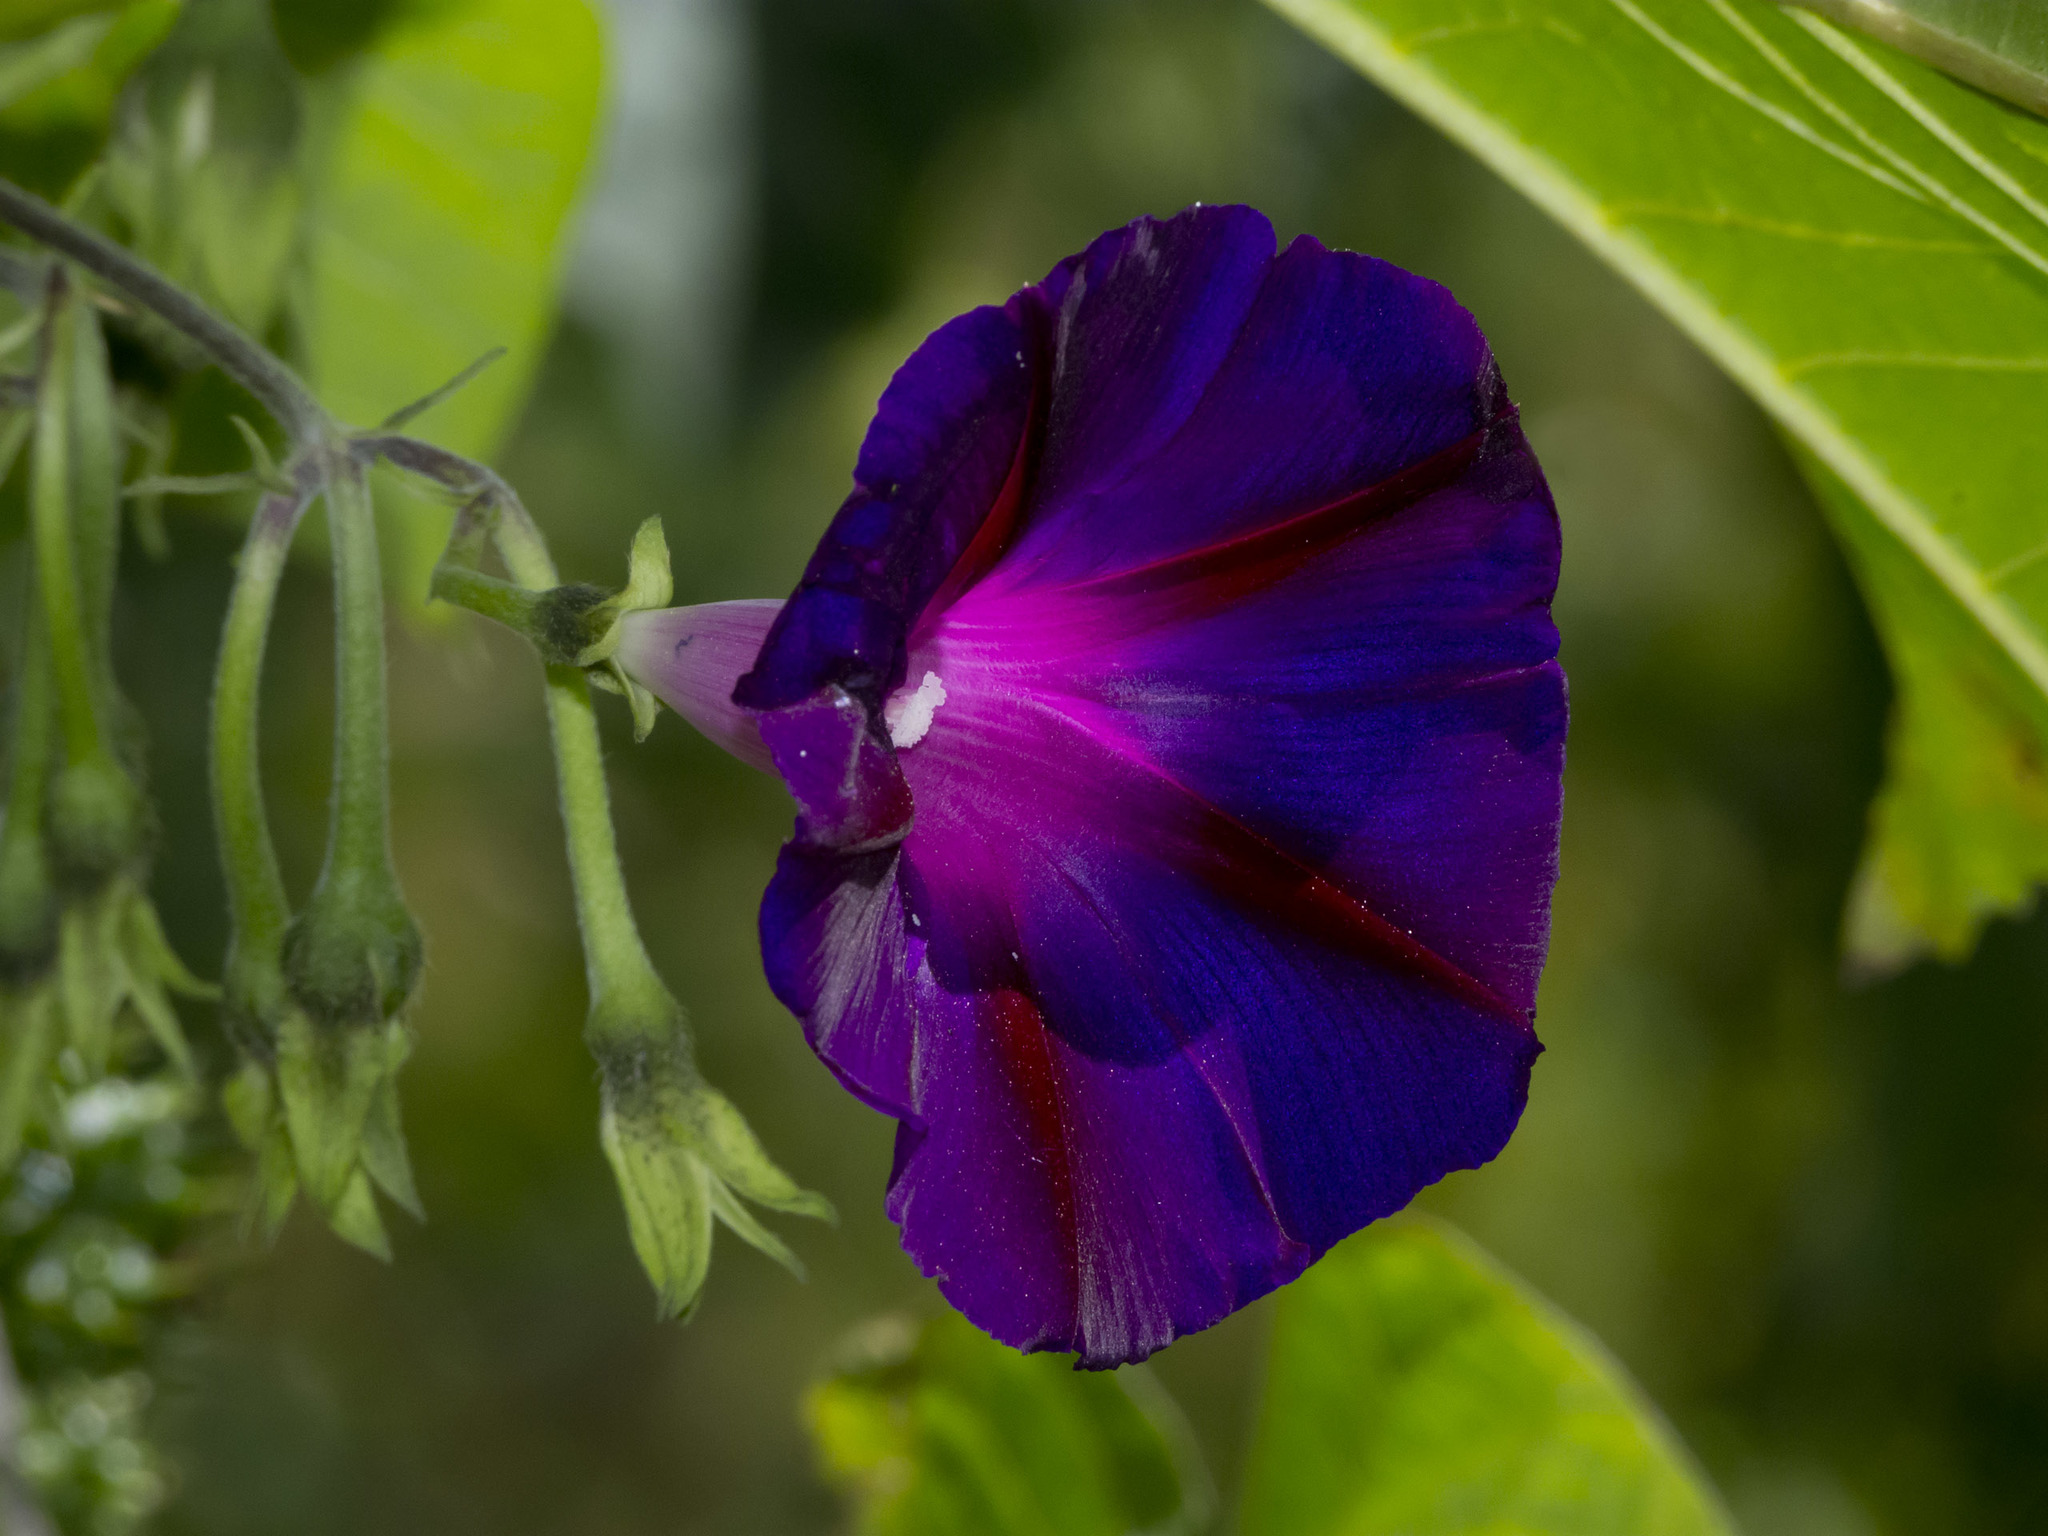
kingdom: Plantae
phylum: Tracheophyta
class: Magnoliopsida
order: Solanales
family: Convolvulaceae
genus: Ipomoea
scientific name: Ipomoea purpurea
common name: Common morning-glory
